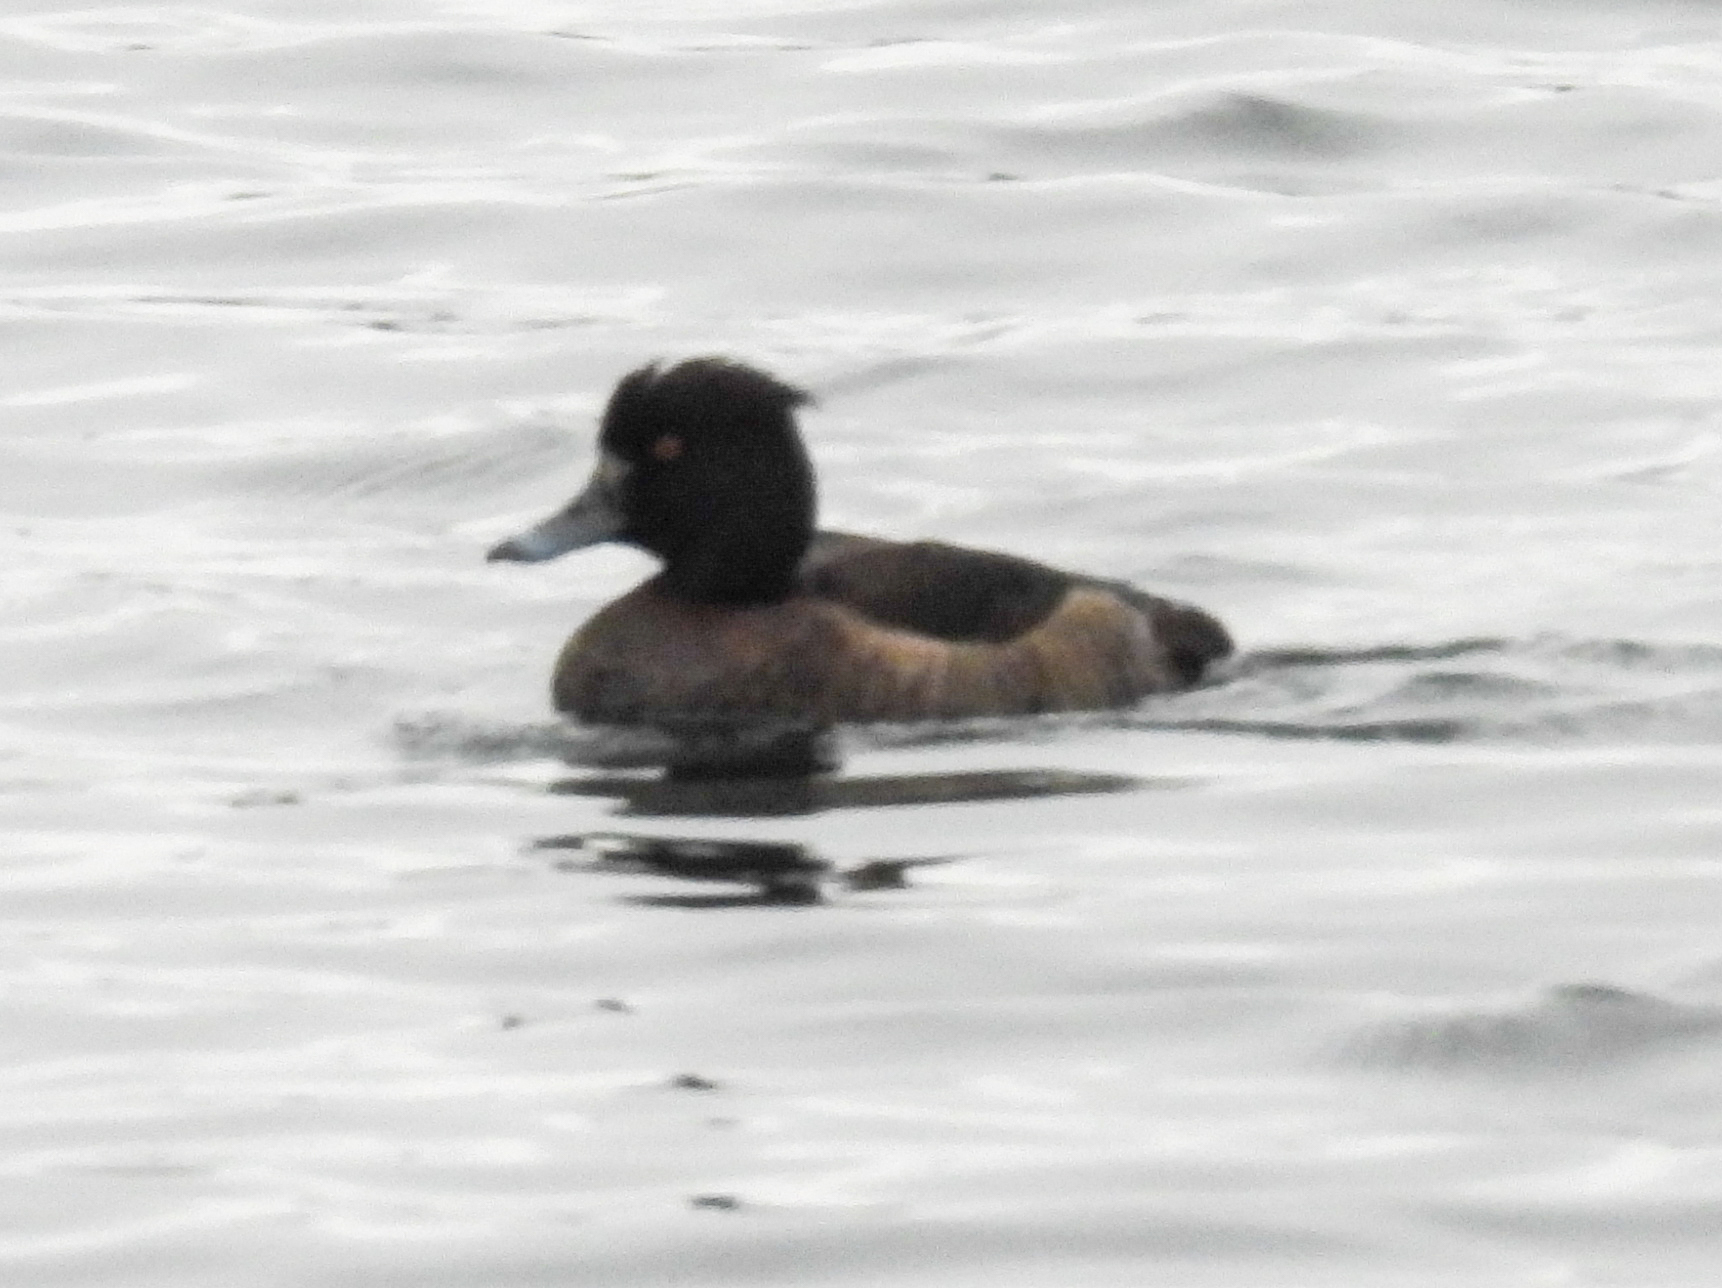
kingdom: Animalia
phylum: Chordata
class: Aves
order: Anseriformes
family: Anatidae
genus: Aythya
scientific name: Aythya fuligula
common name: Tufted duck
